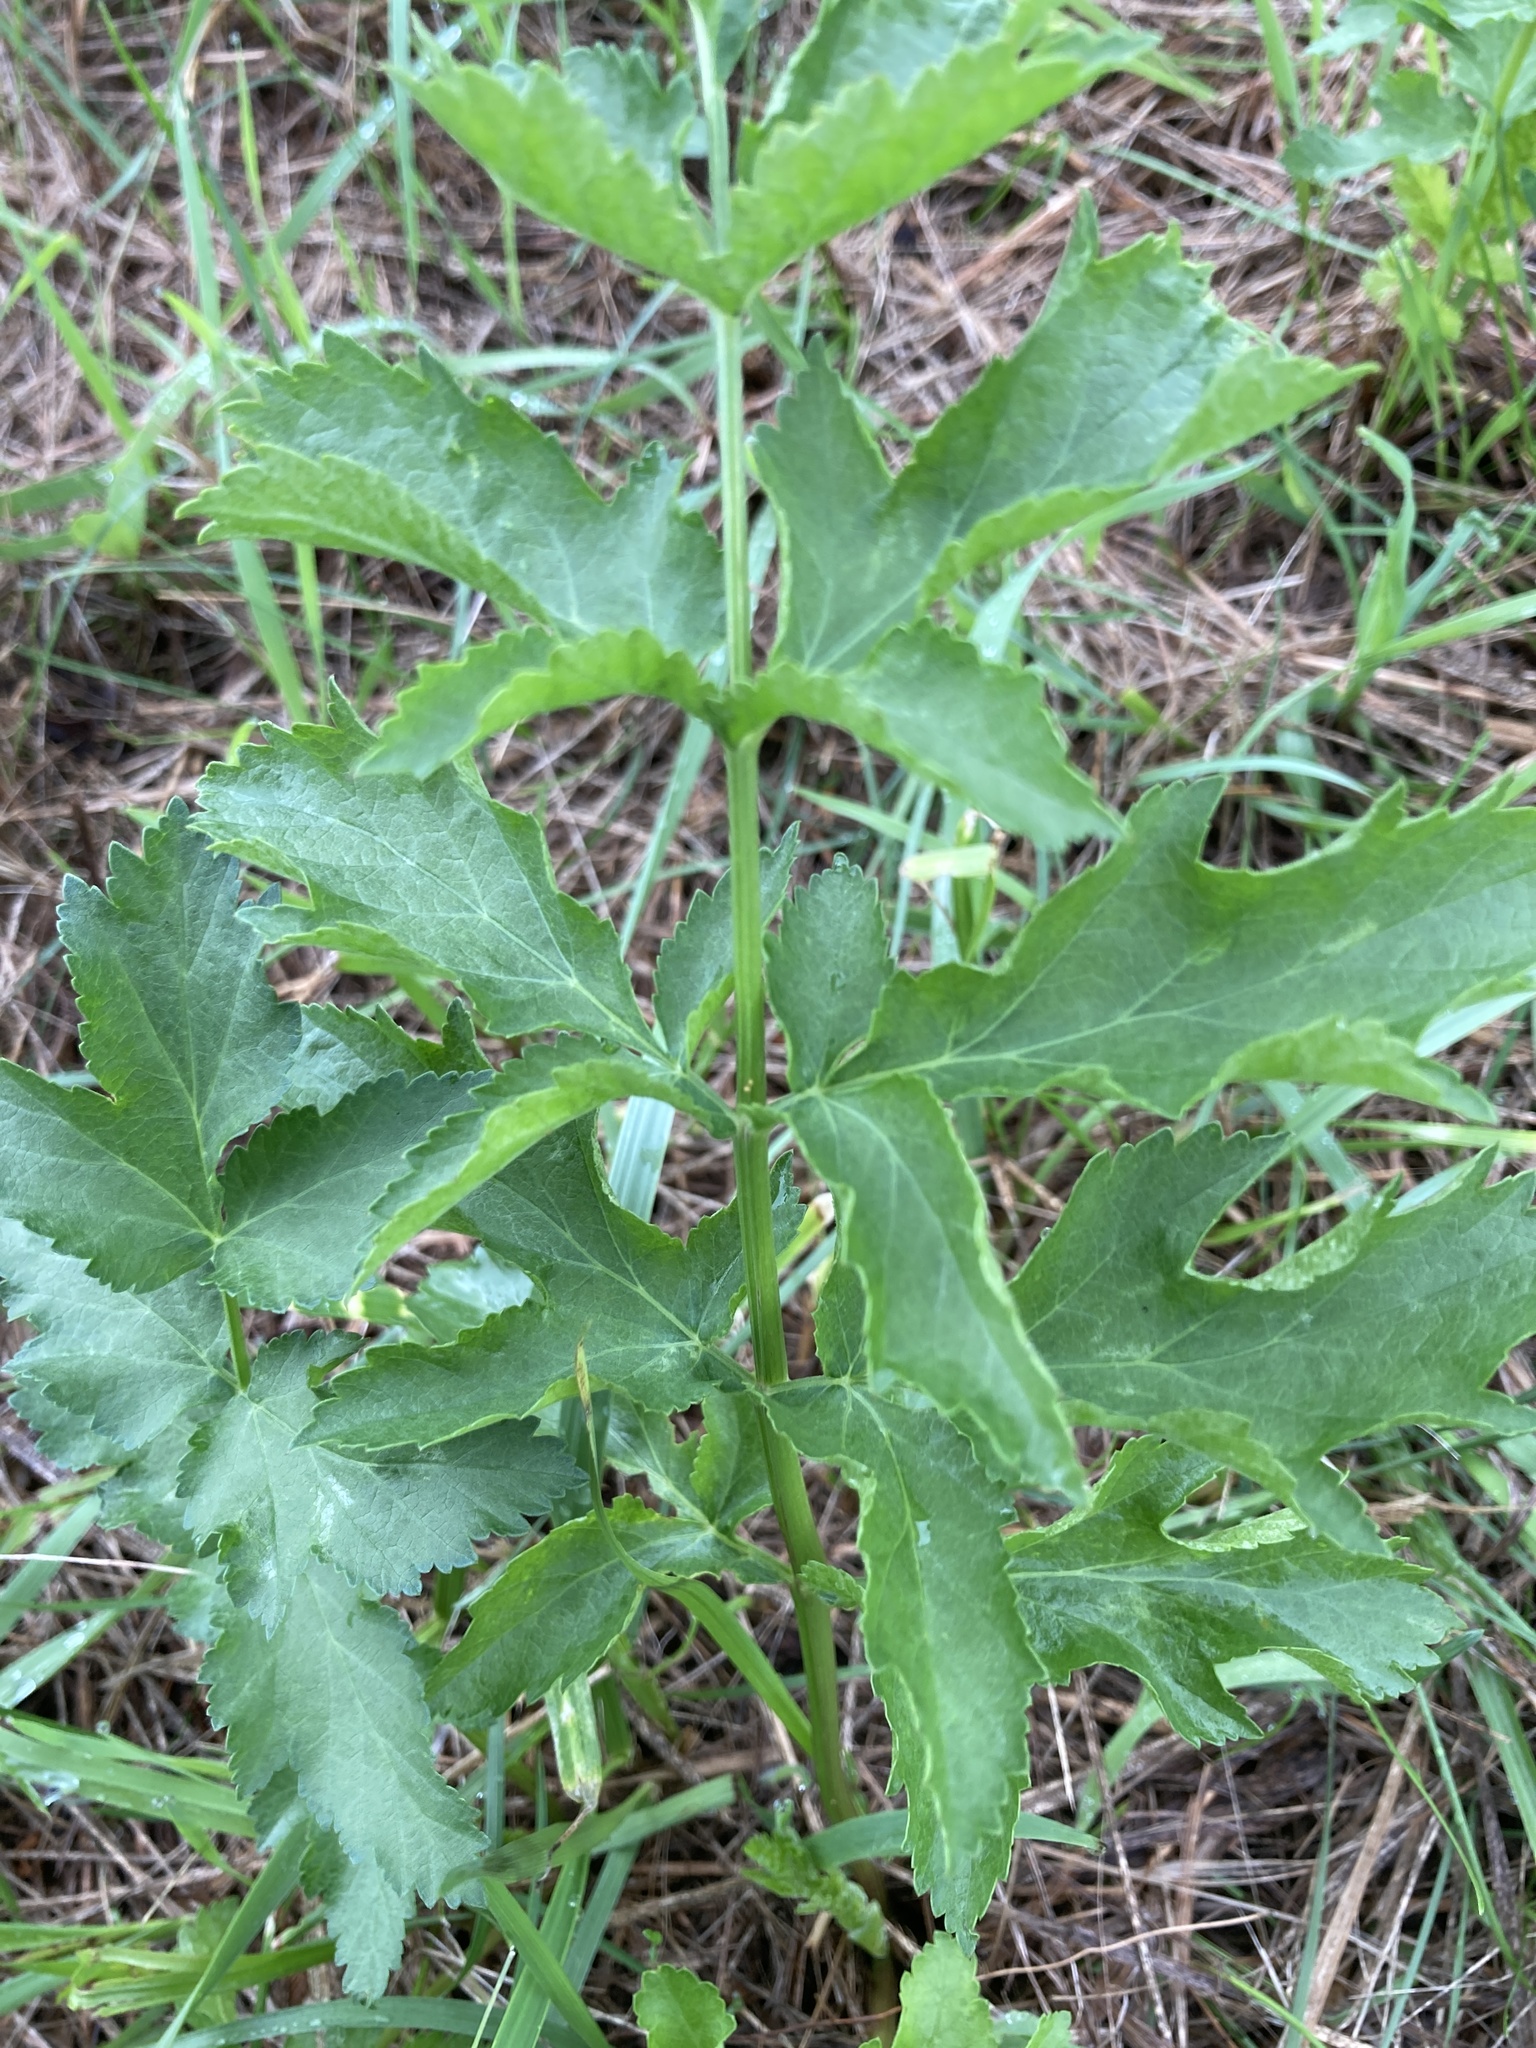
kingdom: Plantae
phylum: Tracheophyta
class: Magnoliopsida
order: Apiales
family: Apiaceae
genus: Pastinaca
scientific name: Pastinaca sativa
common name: Wild parsnip
